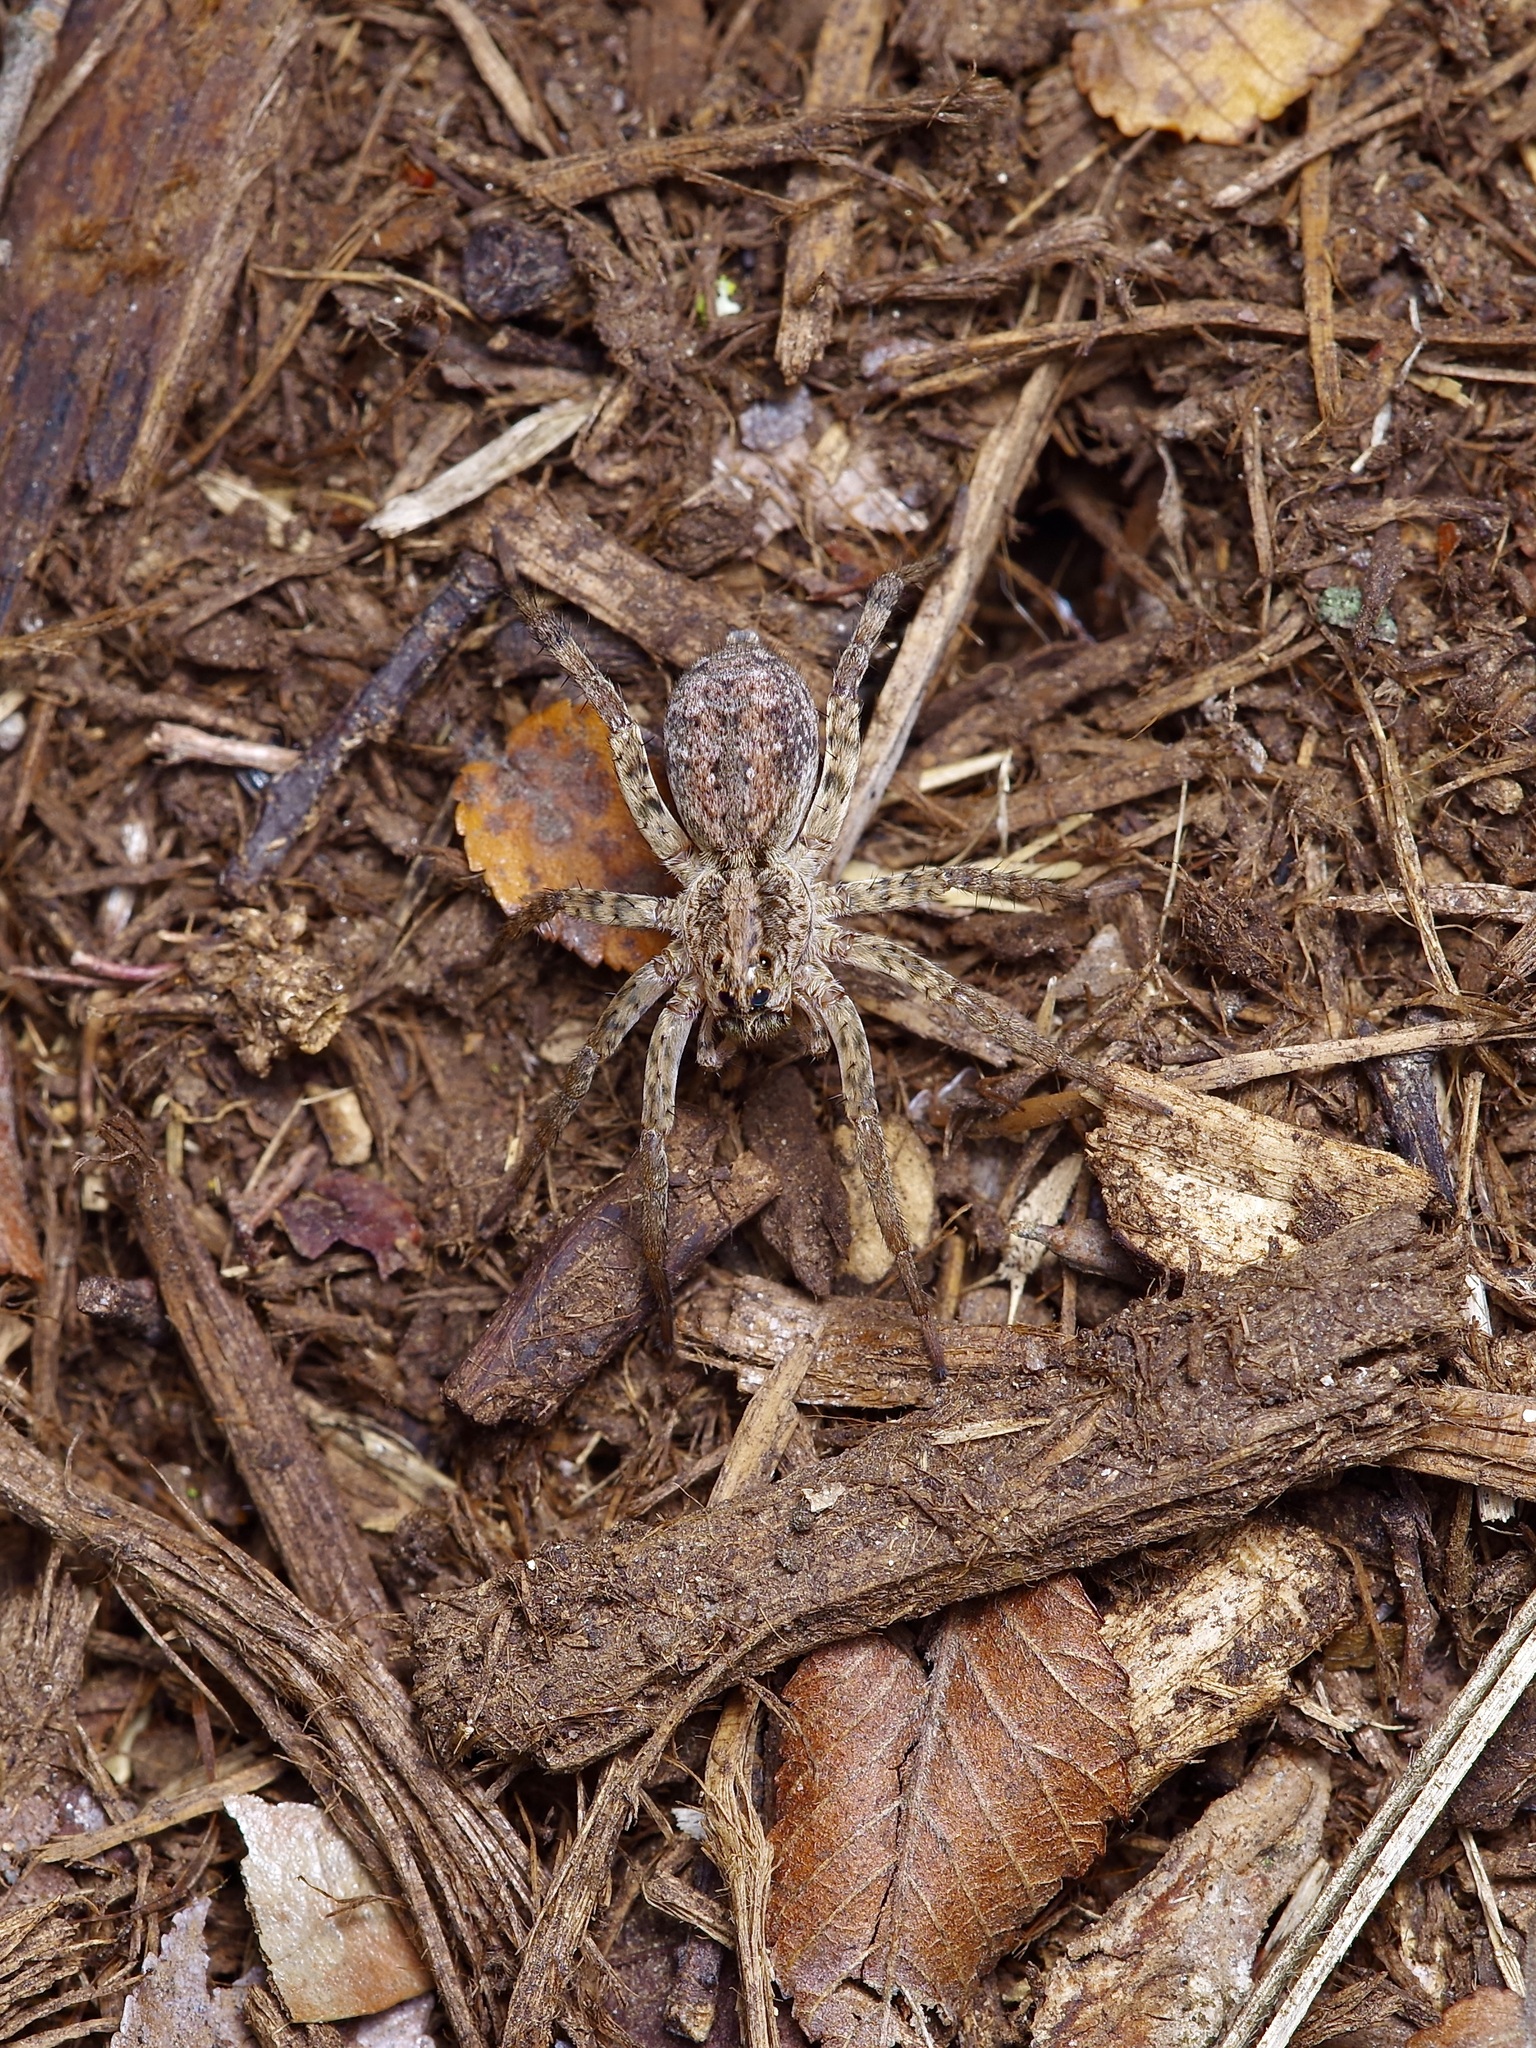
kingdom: Animalia
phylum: Arthropoda
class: Arachnida
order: Araneae
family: Lycosidae
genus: Hogna
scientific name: Hogna antelucana
